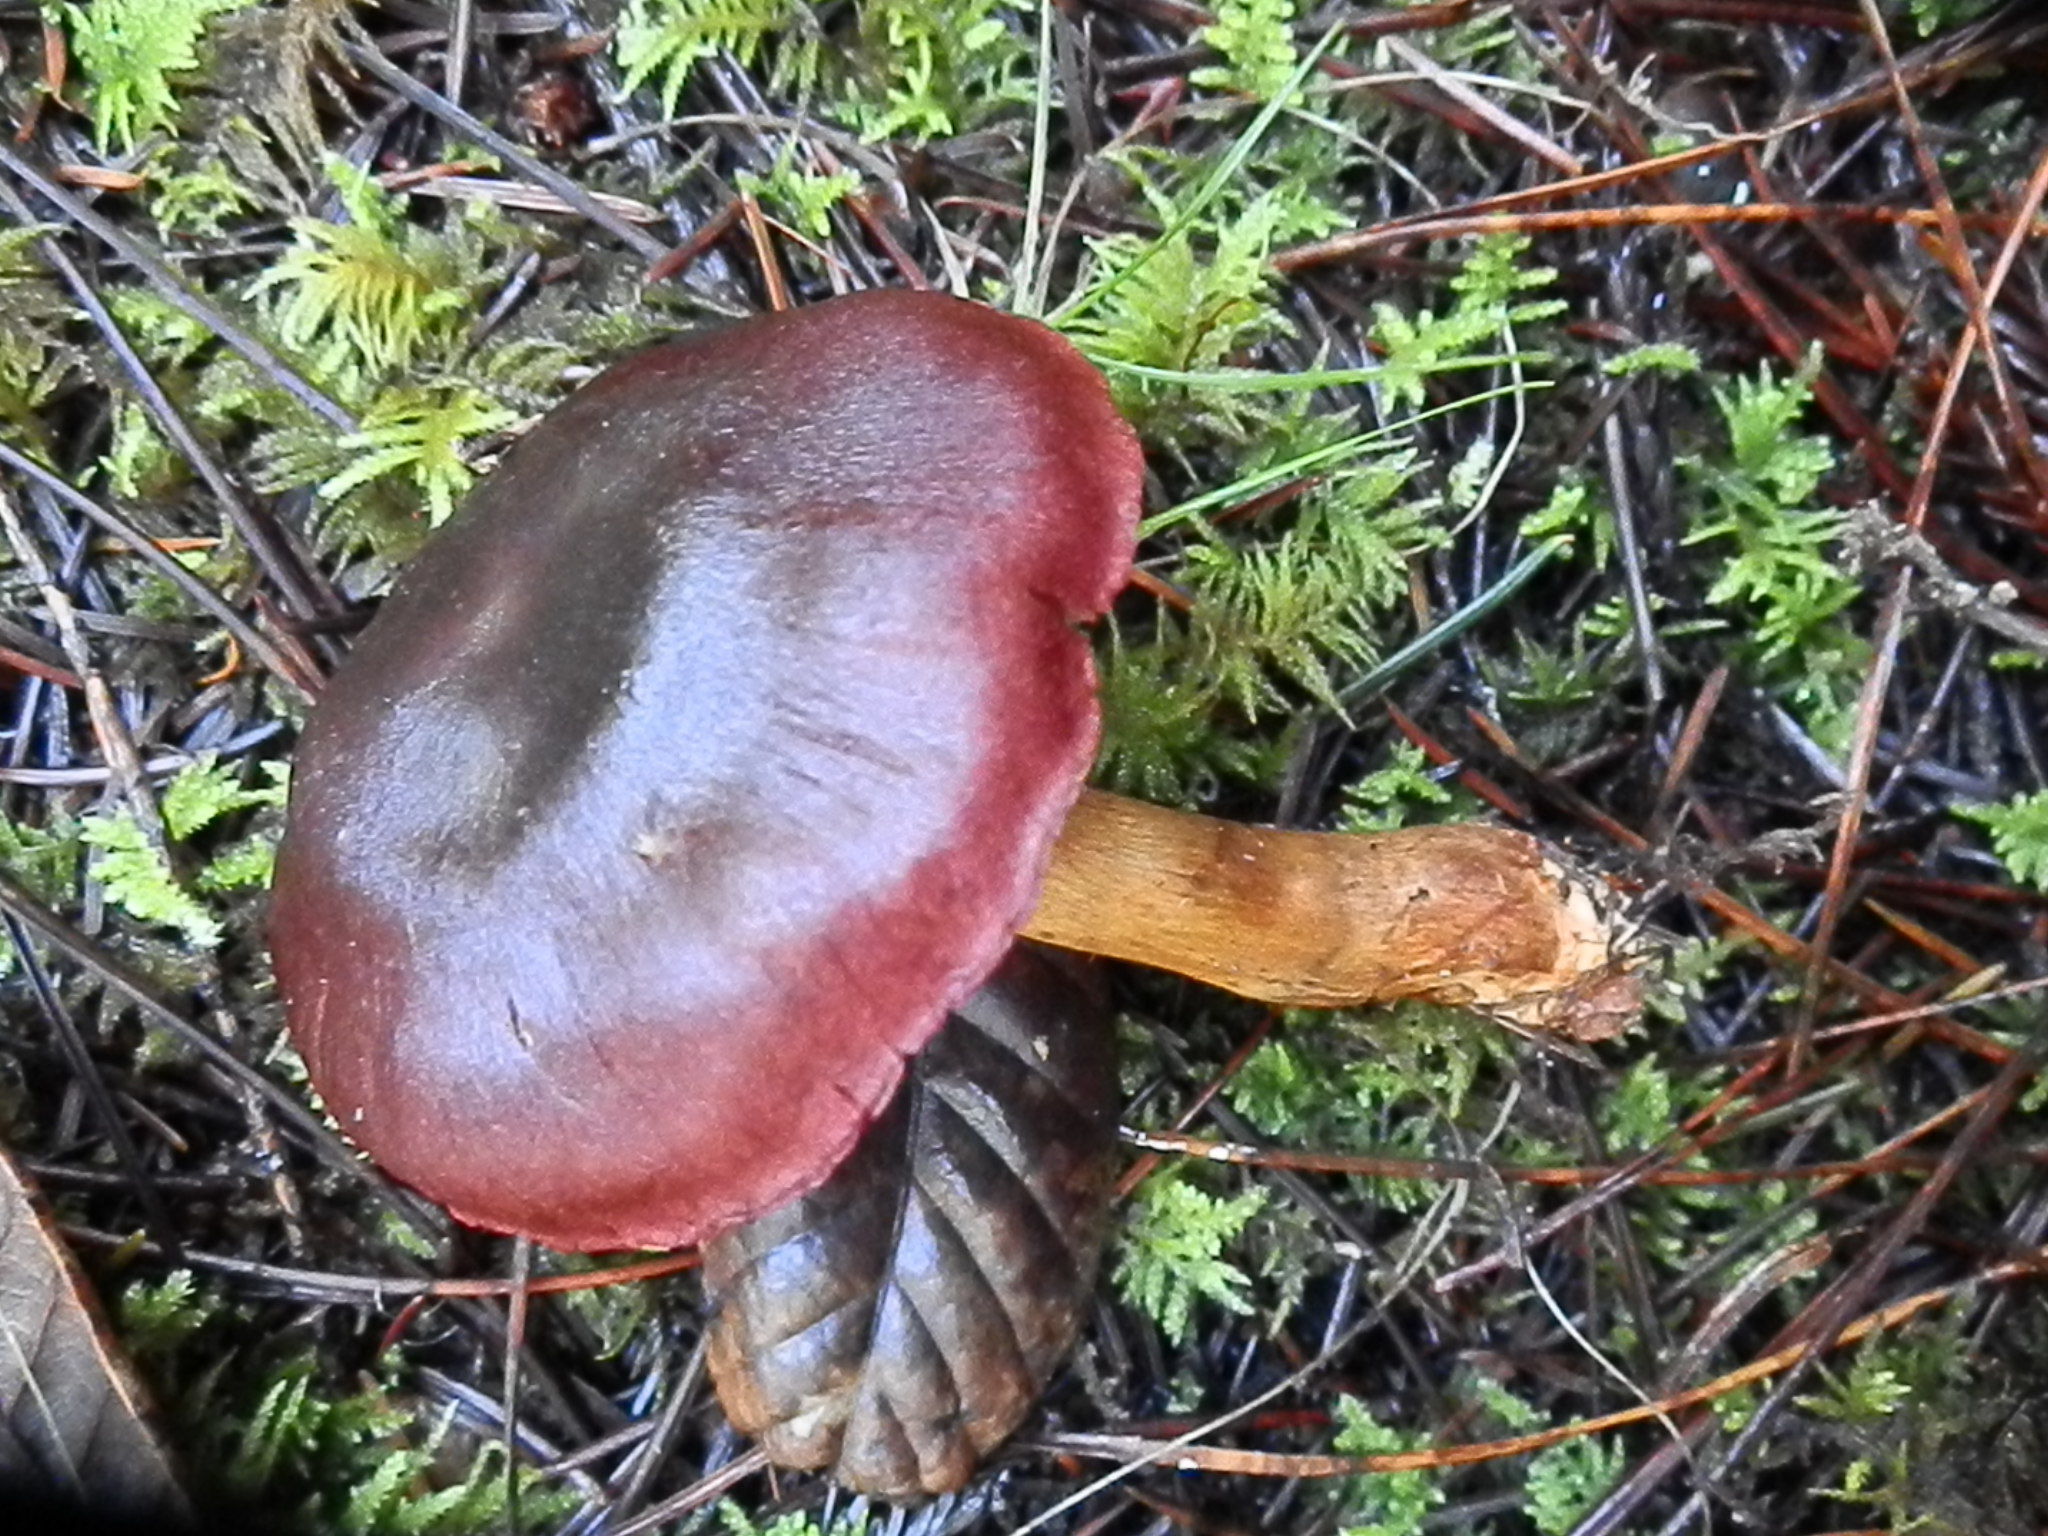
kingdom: Fungi
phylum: Basidiomycota
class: Agaricomycetes
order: Agaricales
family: Cortinariaceae
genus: Cortinarius
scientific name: Cortinarius smithii
